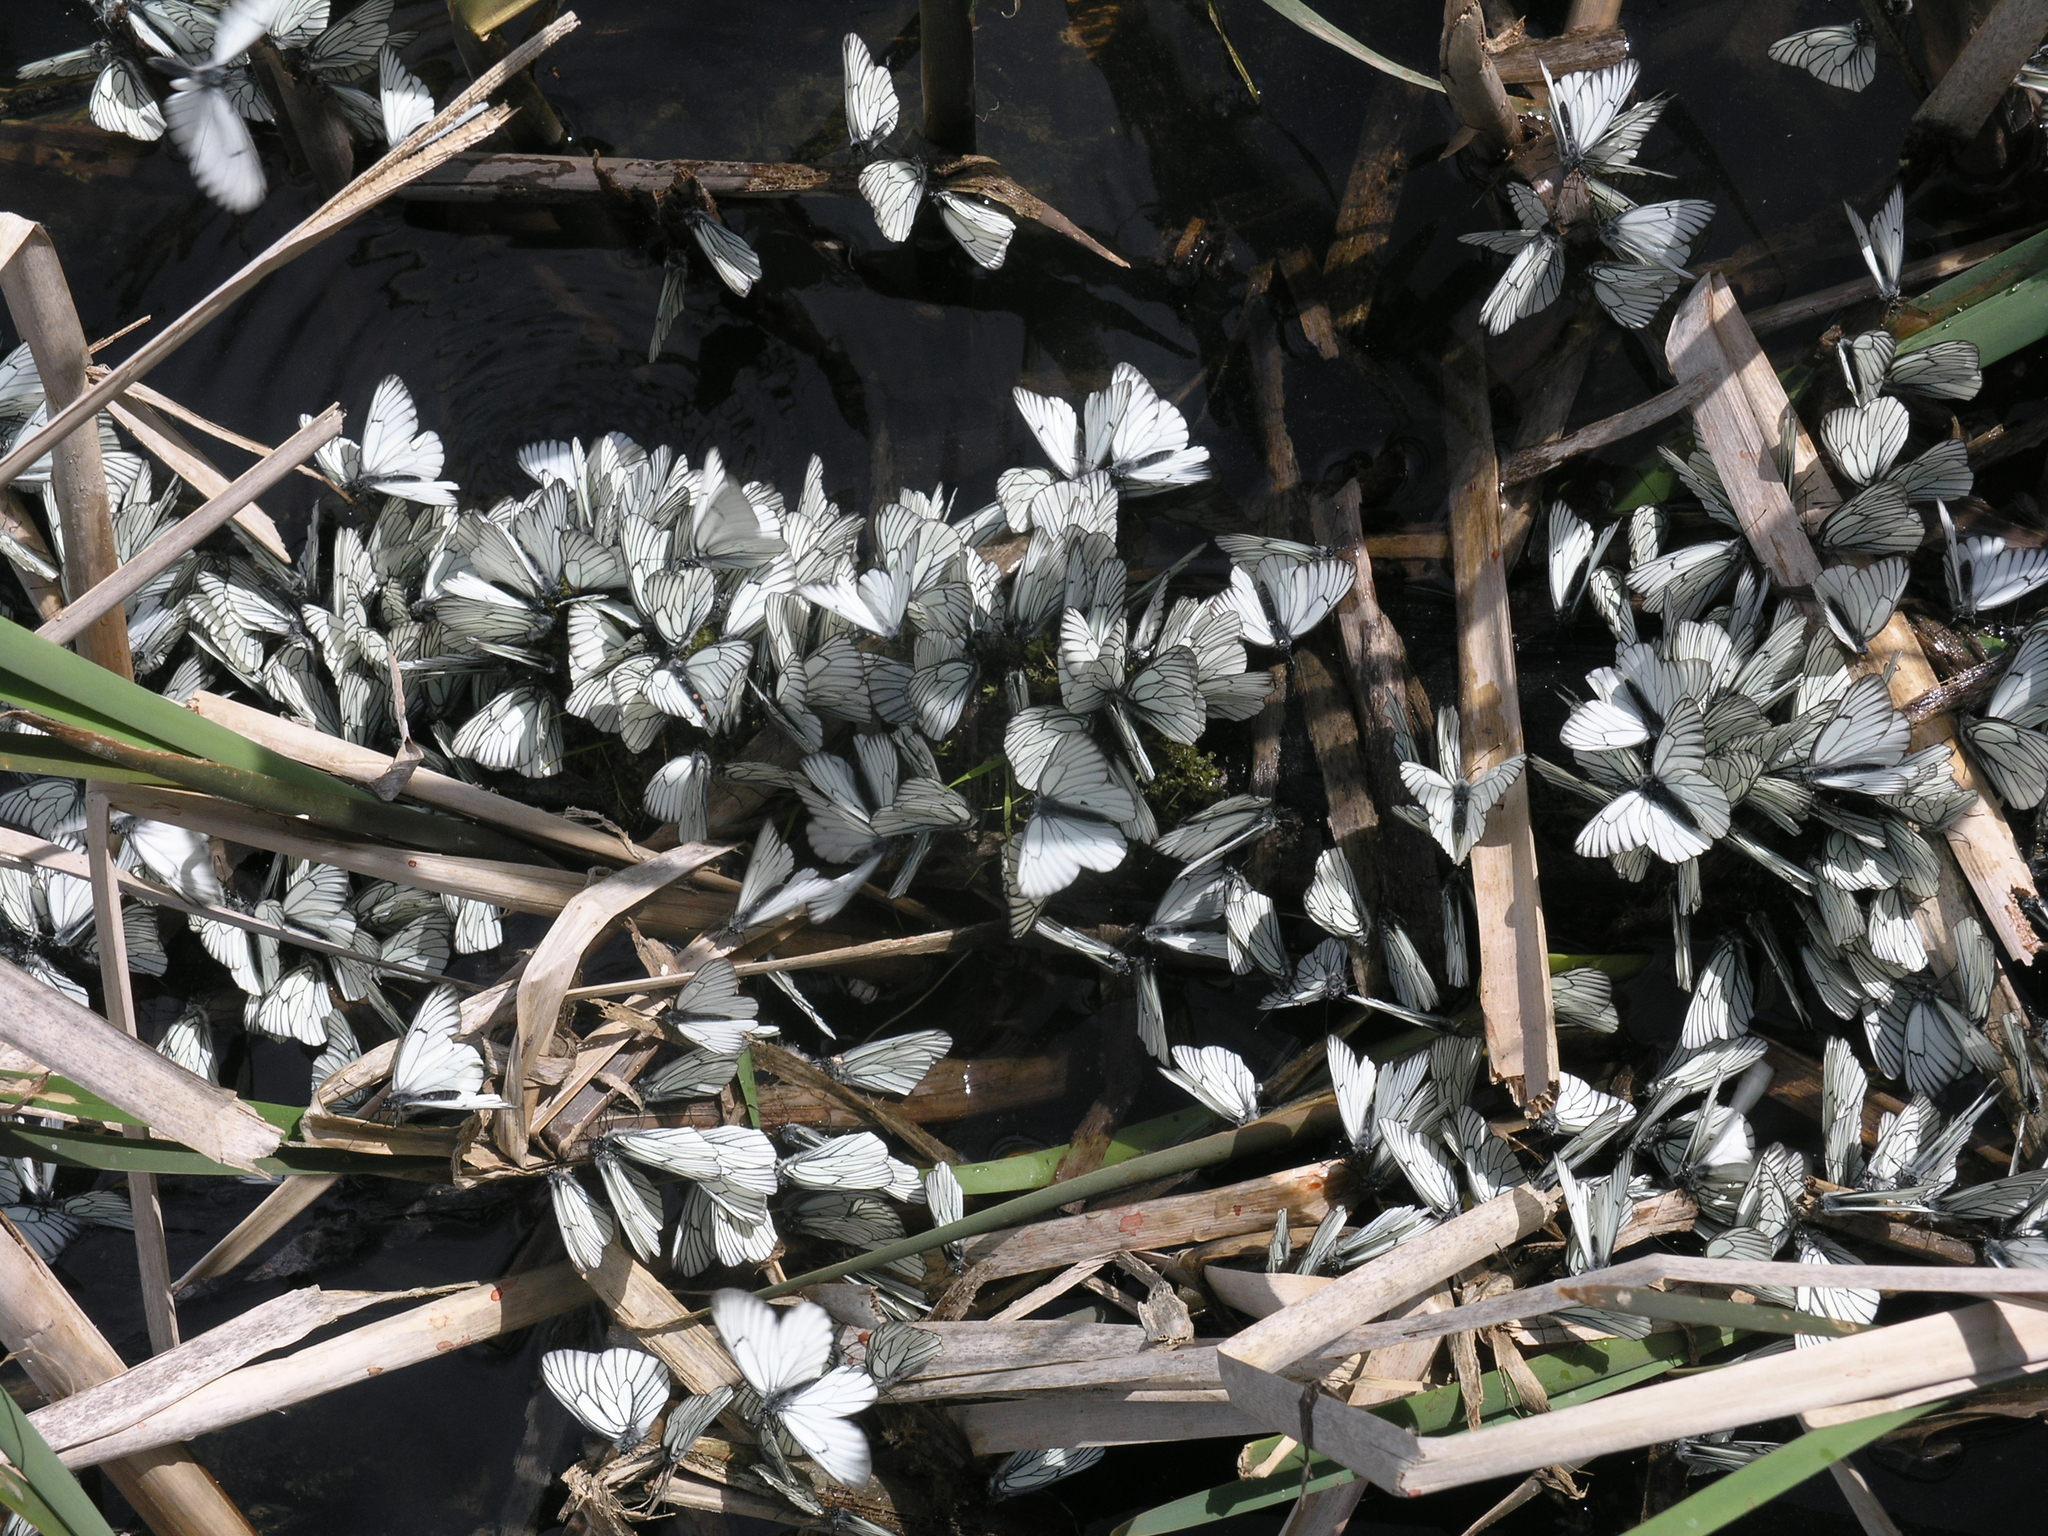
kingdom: Animalia
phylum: Arthropoda
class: Insecta
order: Lepidoptera
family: Pieridae
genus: Aporia
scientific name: Aporia crataegi
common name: Black-veined white
